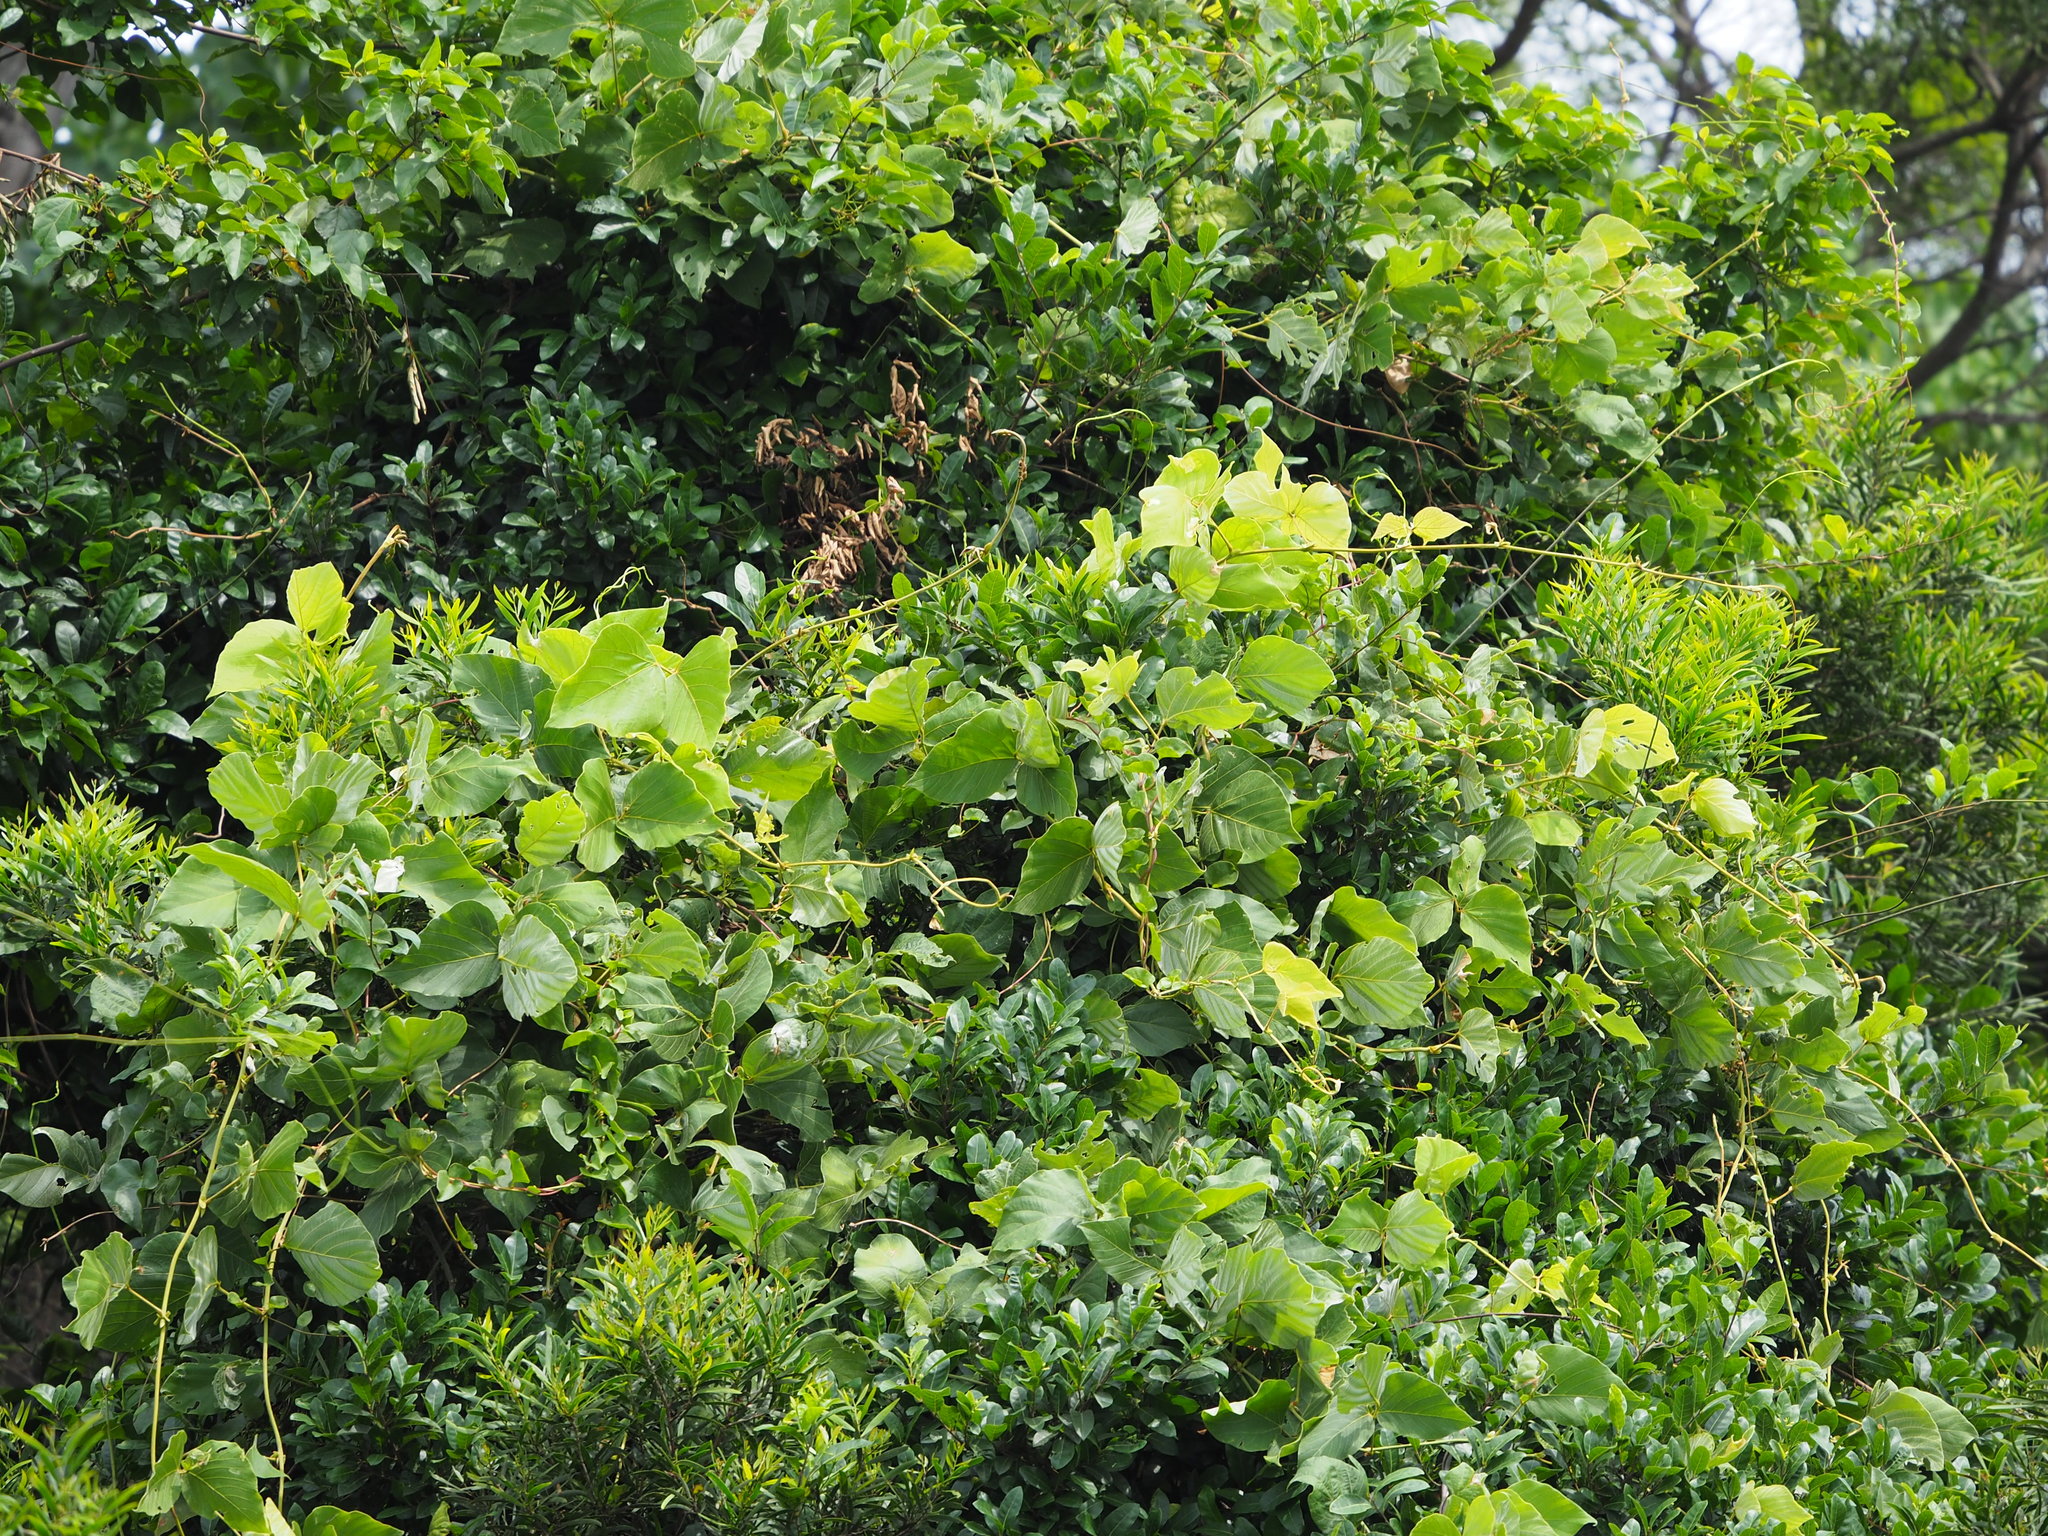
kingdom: Plantae
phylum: Tracheophyta
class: Magnoliopsida
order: Fabales
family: Fabaceae
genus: Pueraria
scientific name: Pueraria montana
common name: Kudzu
